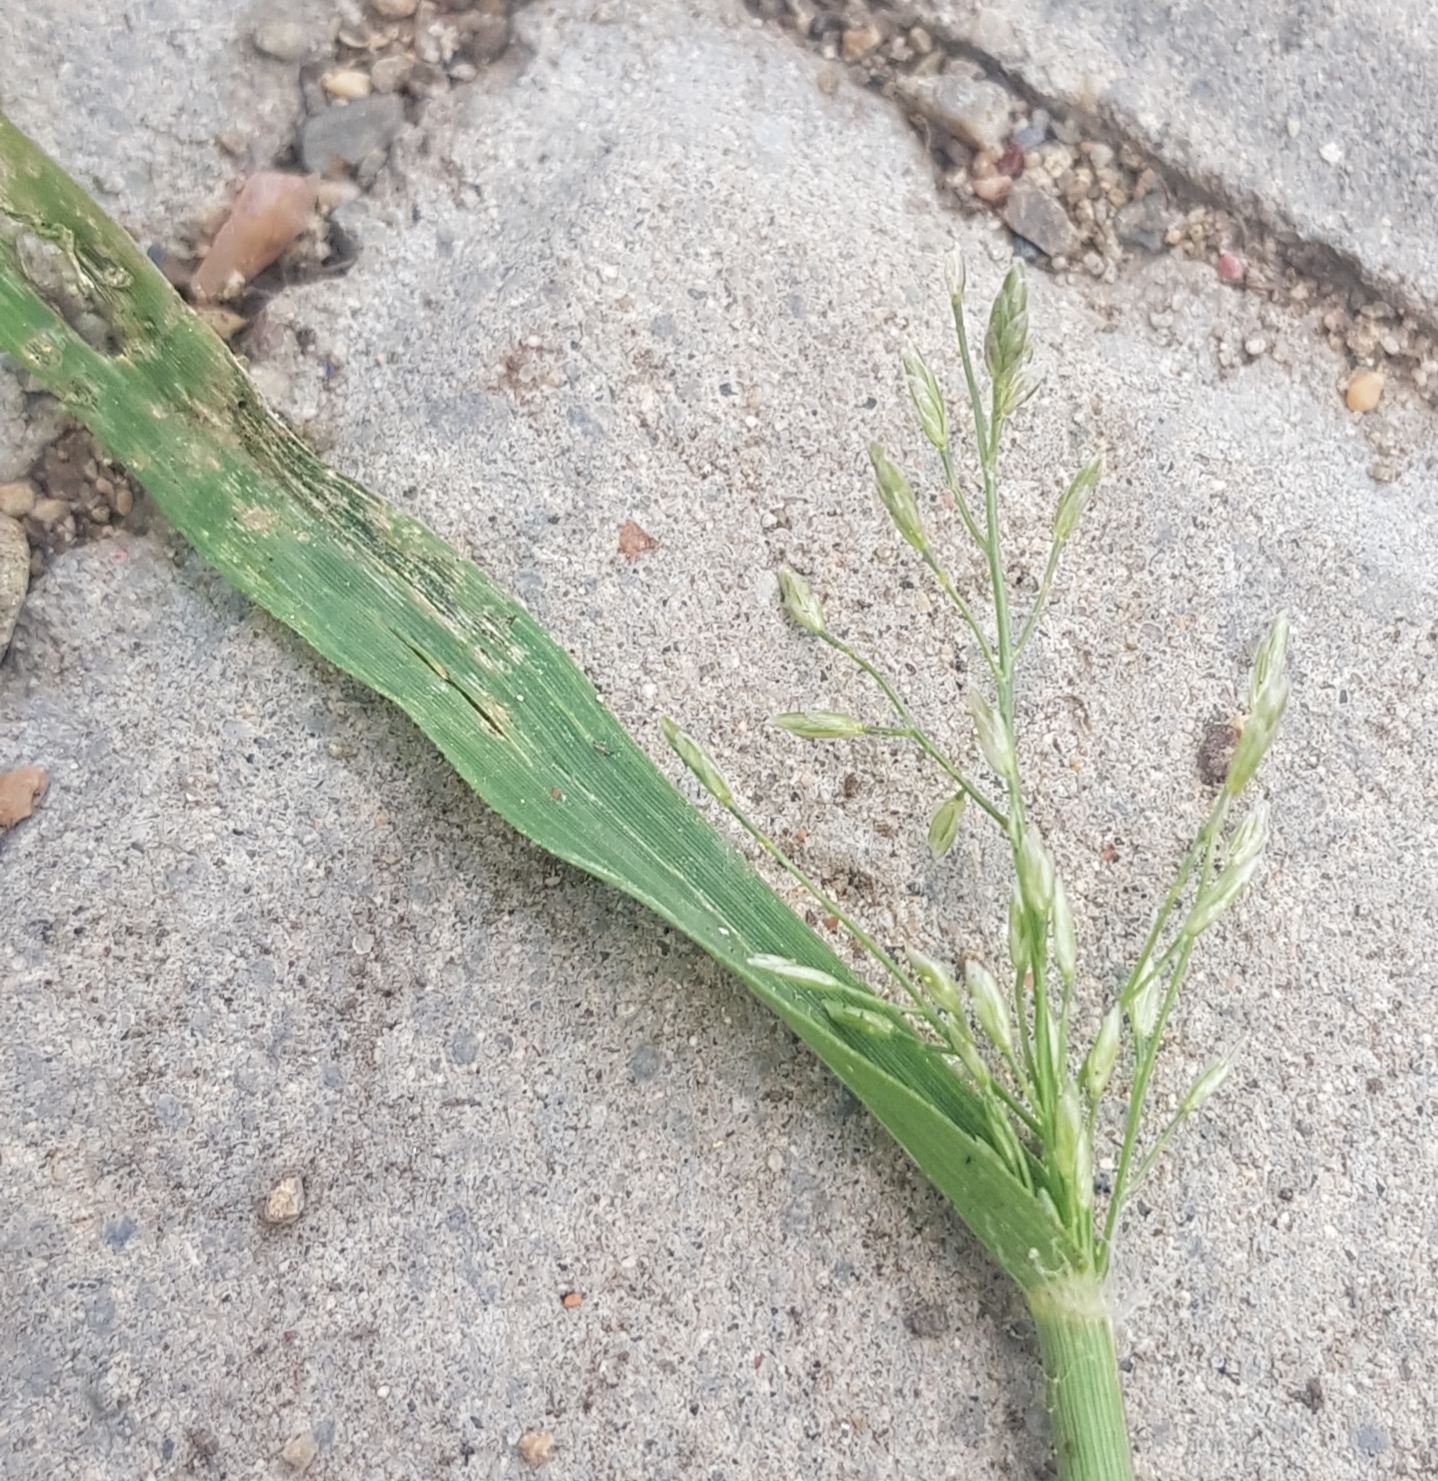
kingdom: Plantae
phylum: Tracheophyta
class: Liliopsida
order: Poales
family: Poaceae
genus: Eragrostis
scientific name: Eragrostis pilosa
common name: Indian lovegrass
